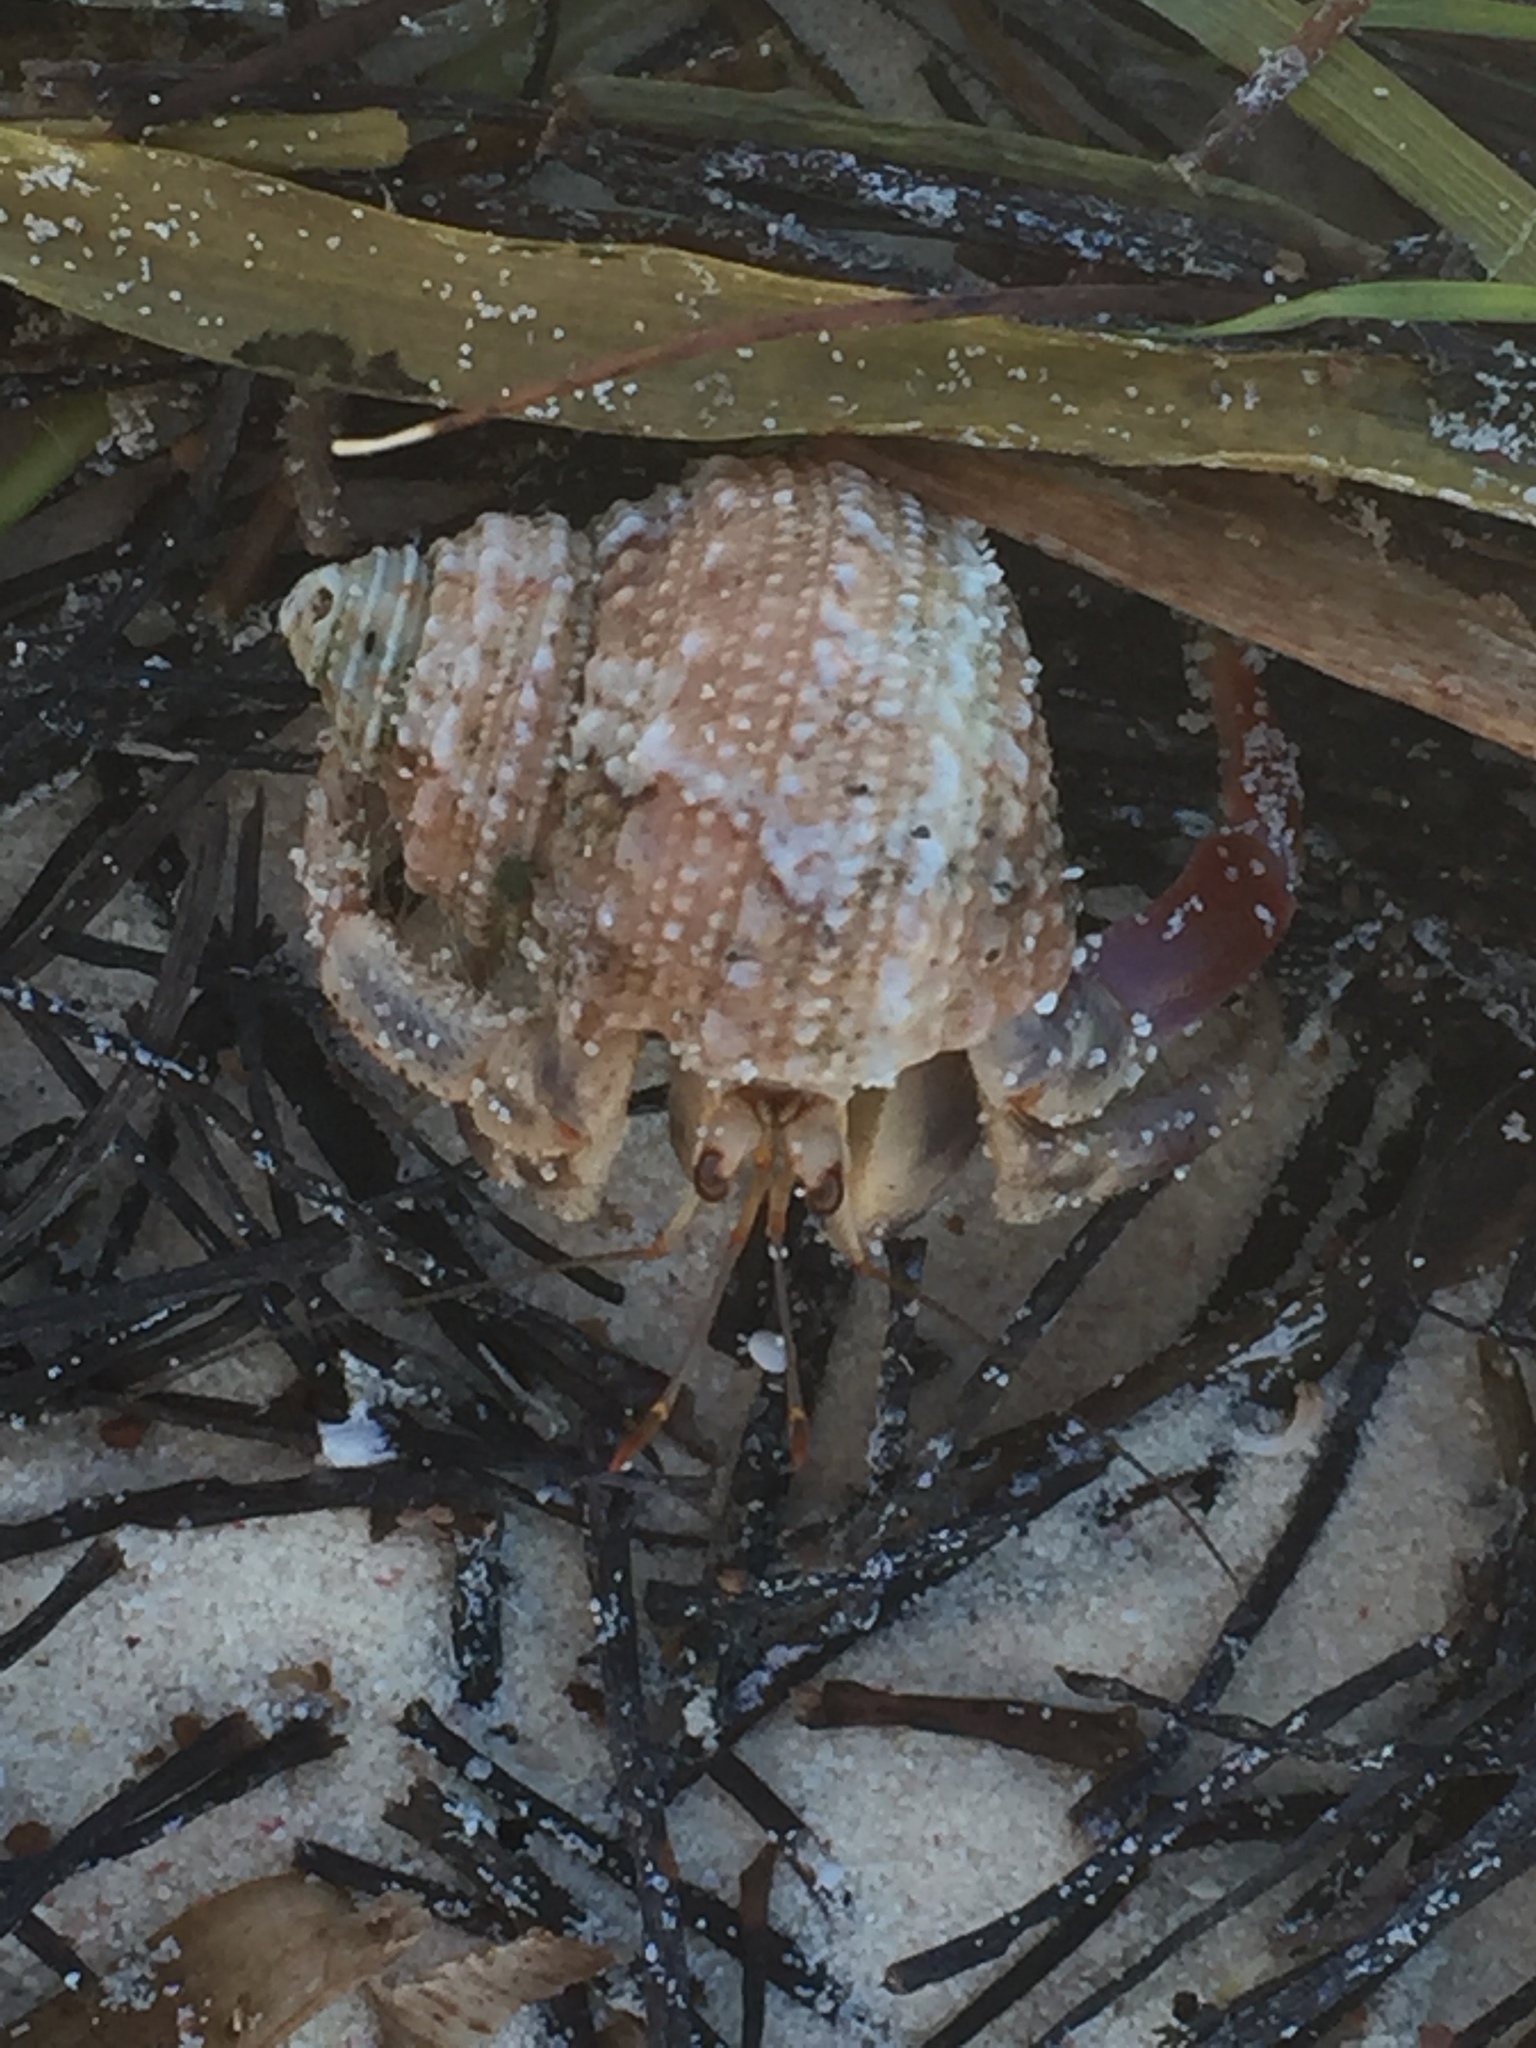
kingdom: Animalia
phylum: Arthropoda
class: Malacostraca
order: Decapoda
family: Coenobitidae
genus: Coenobita
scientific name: Coenobita clypeatus
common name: Caribbean hermit crab
